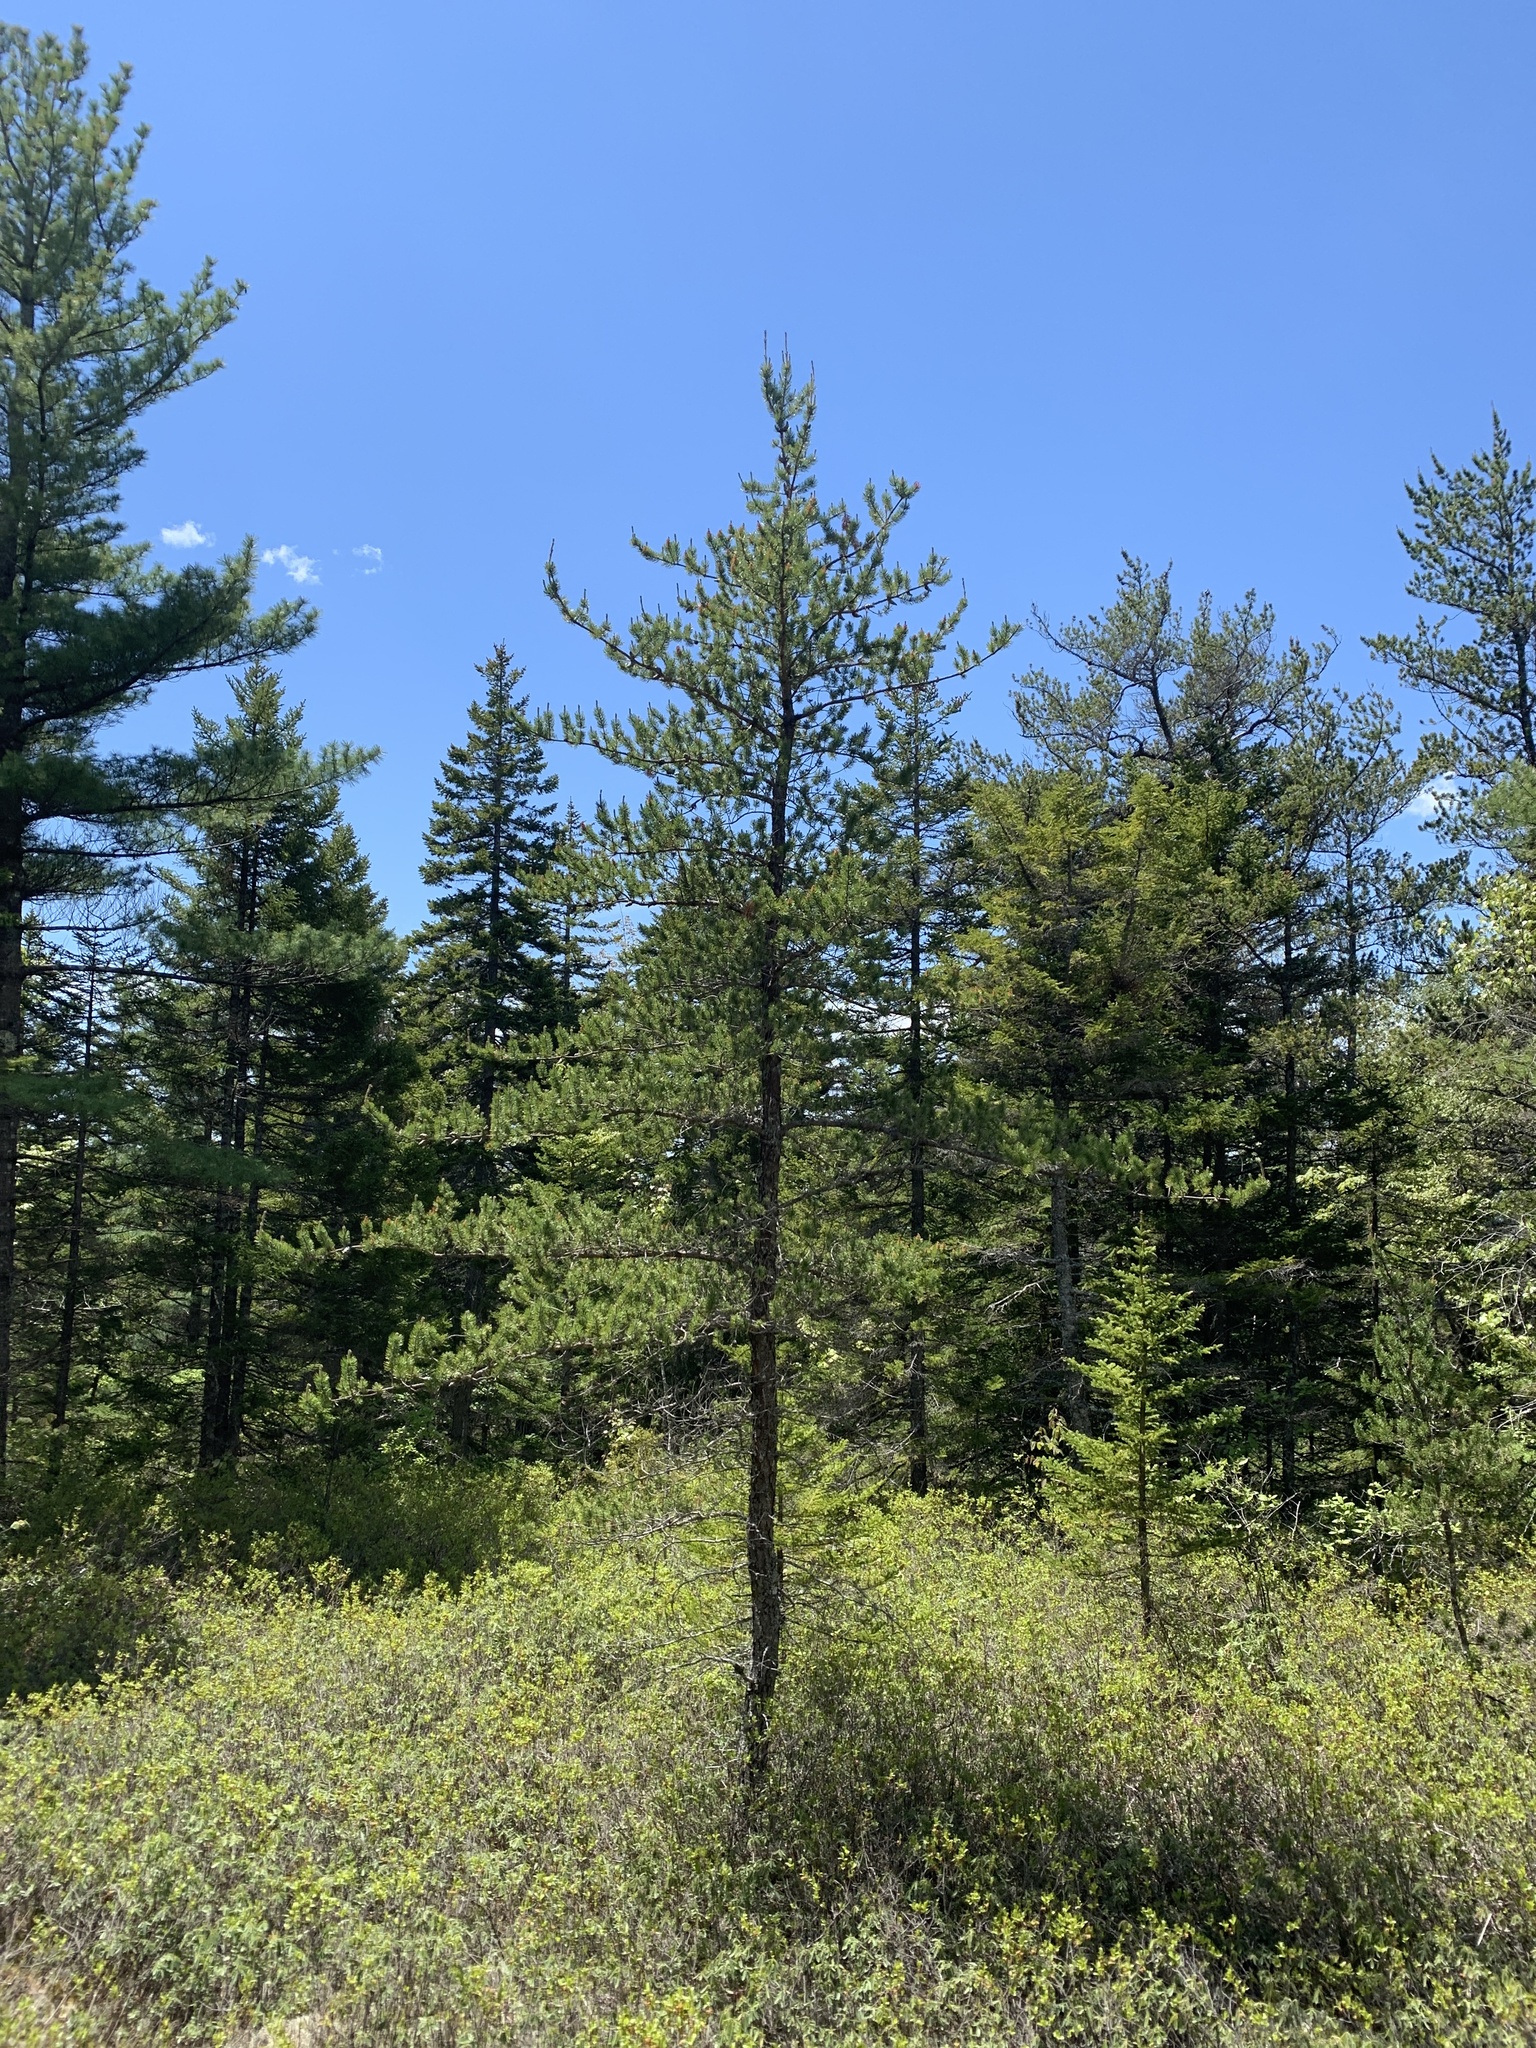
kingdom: Plantae
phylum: Tracheophyta
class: Pinopsida
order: Pinales
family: Pinaceae
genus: Pinus
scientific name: Pinus banksiana
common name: Jack pine
